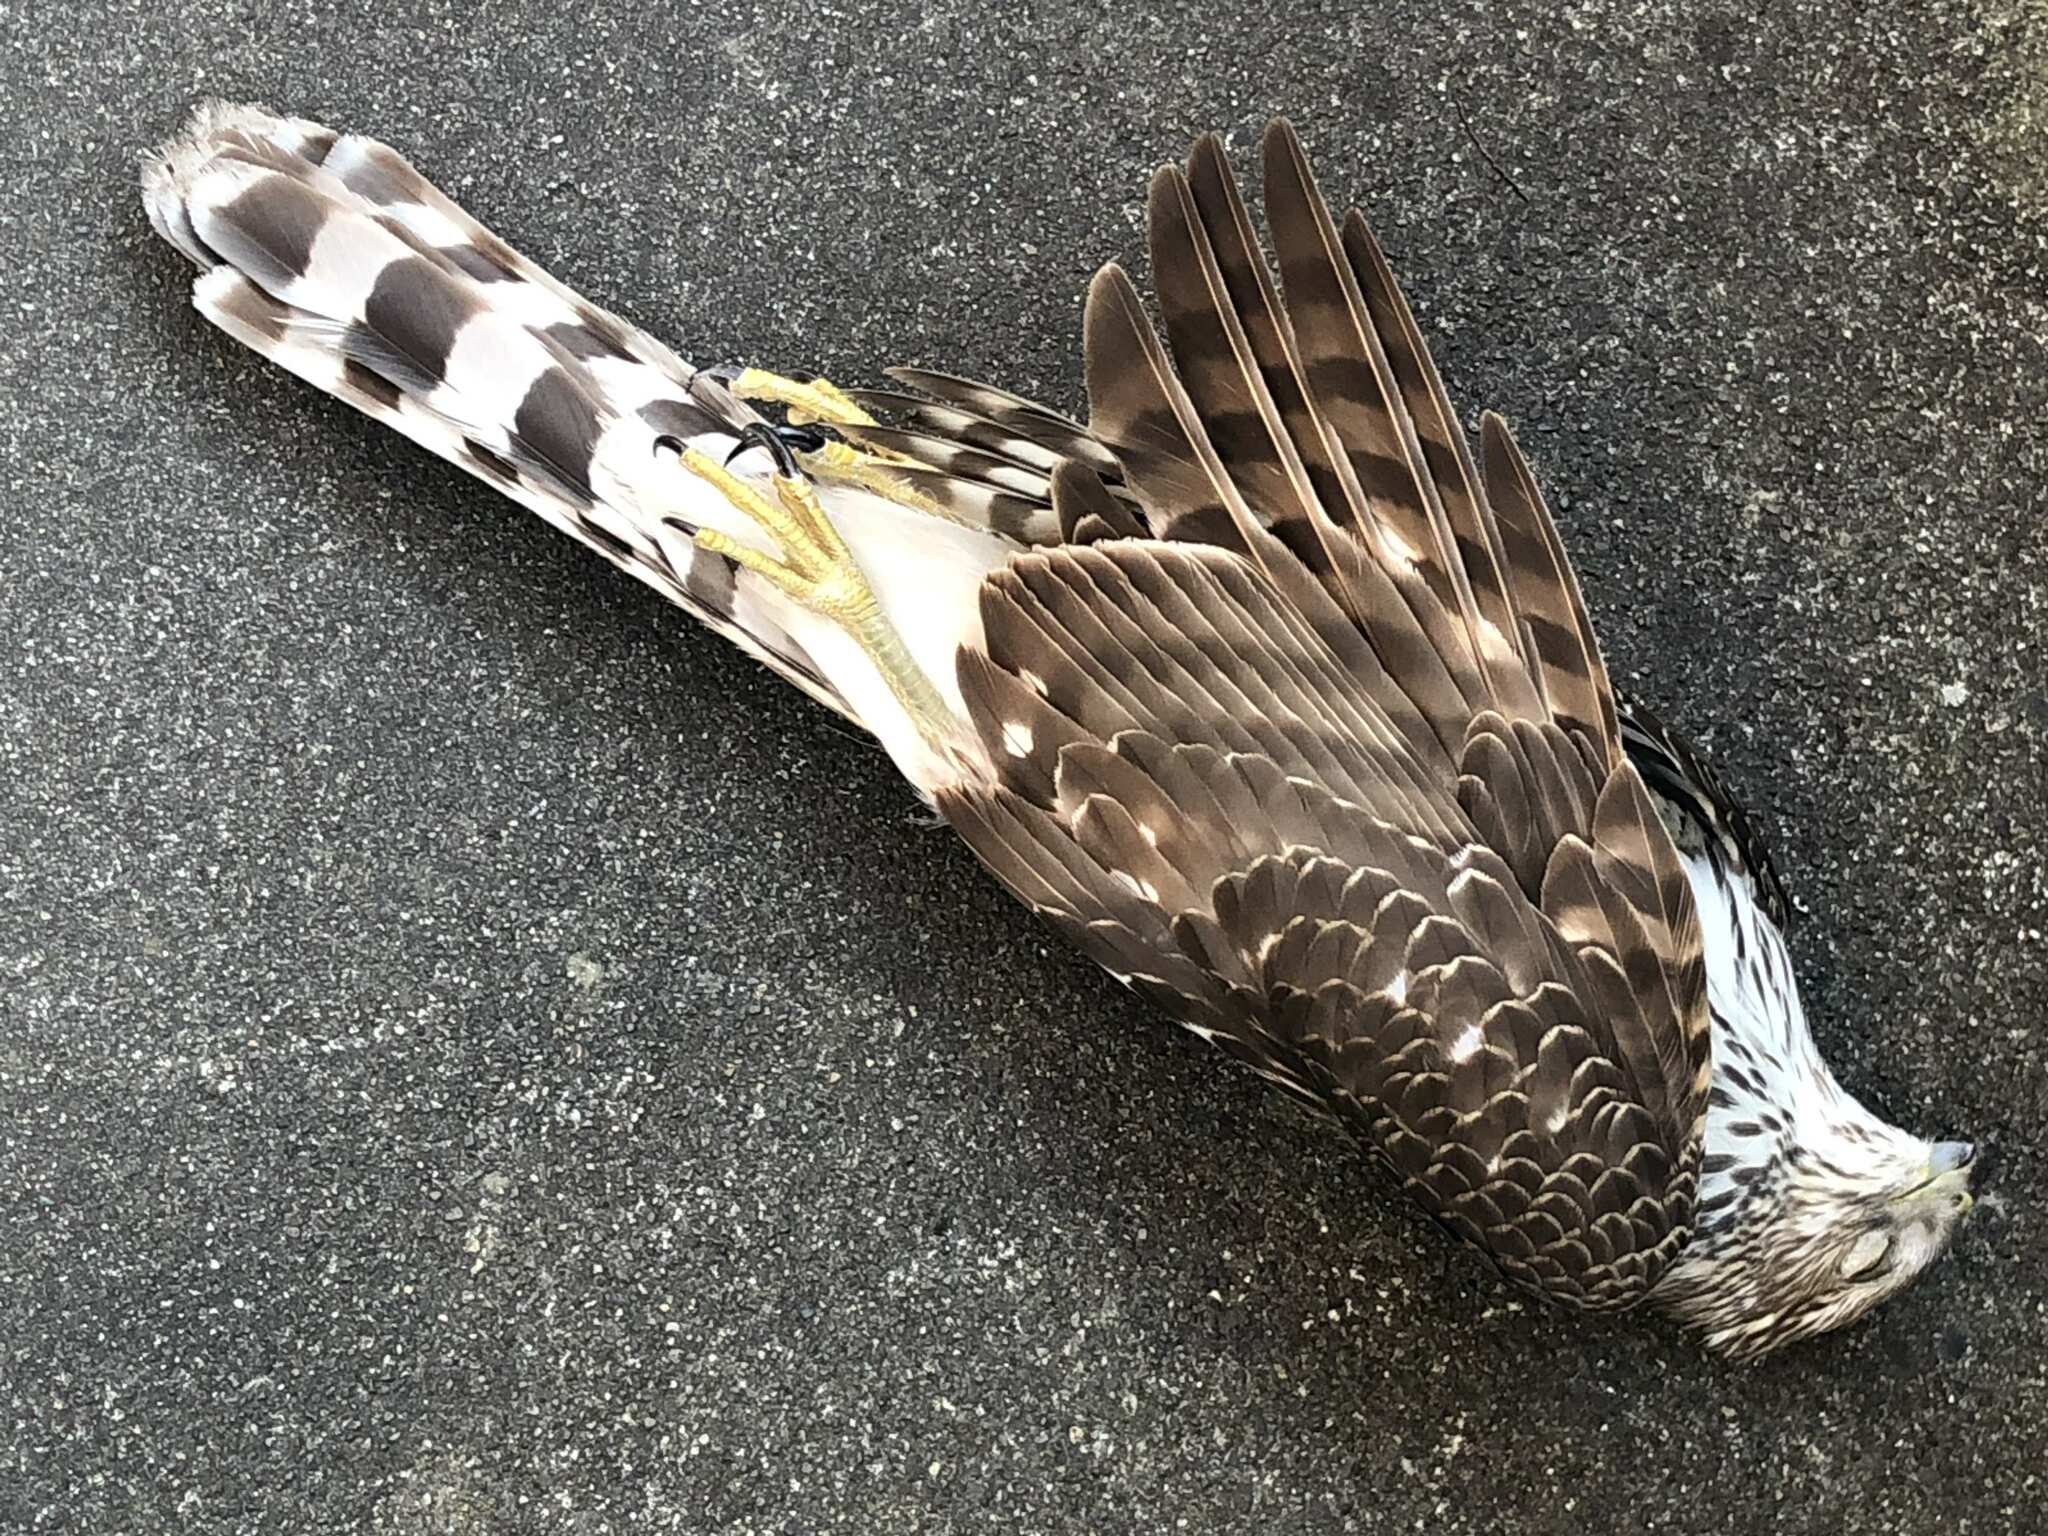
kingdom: Animalia
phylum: Chordata
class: Aves
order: Accipitriformes
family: Accipitridae
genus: Accipiter
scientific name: Accipiter cooperii
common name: Cooper's hawk
